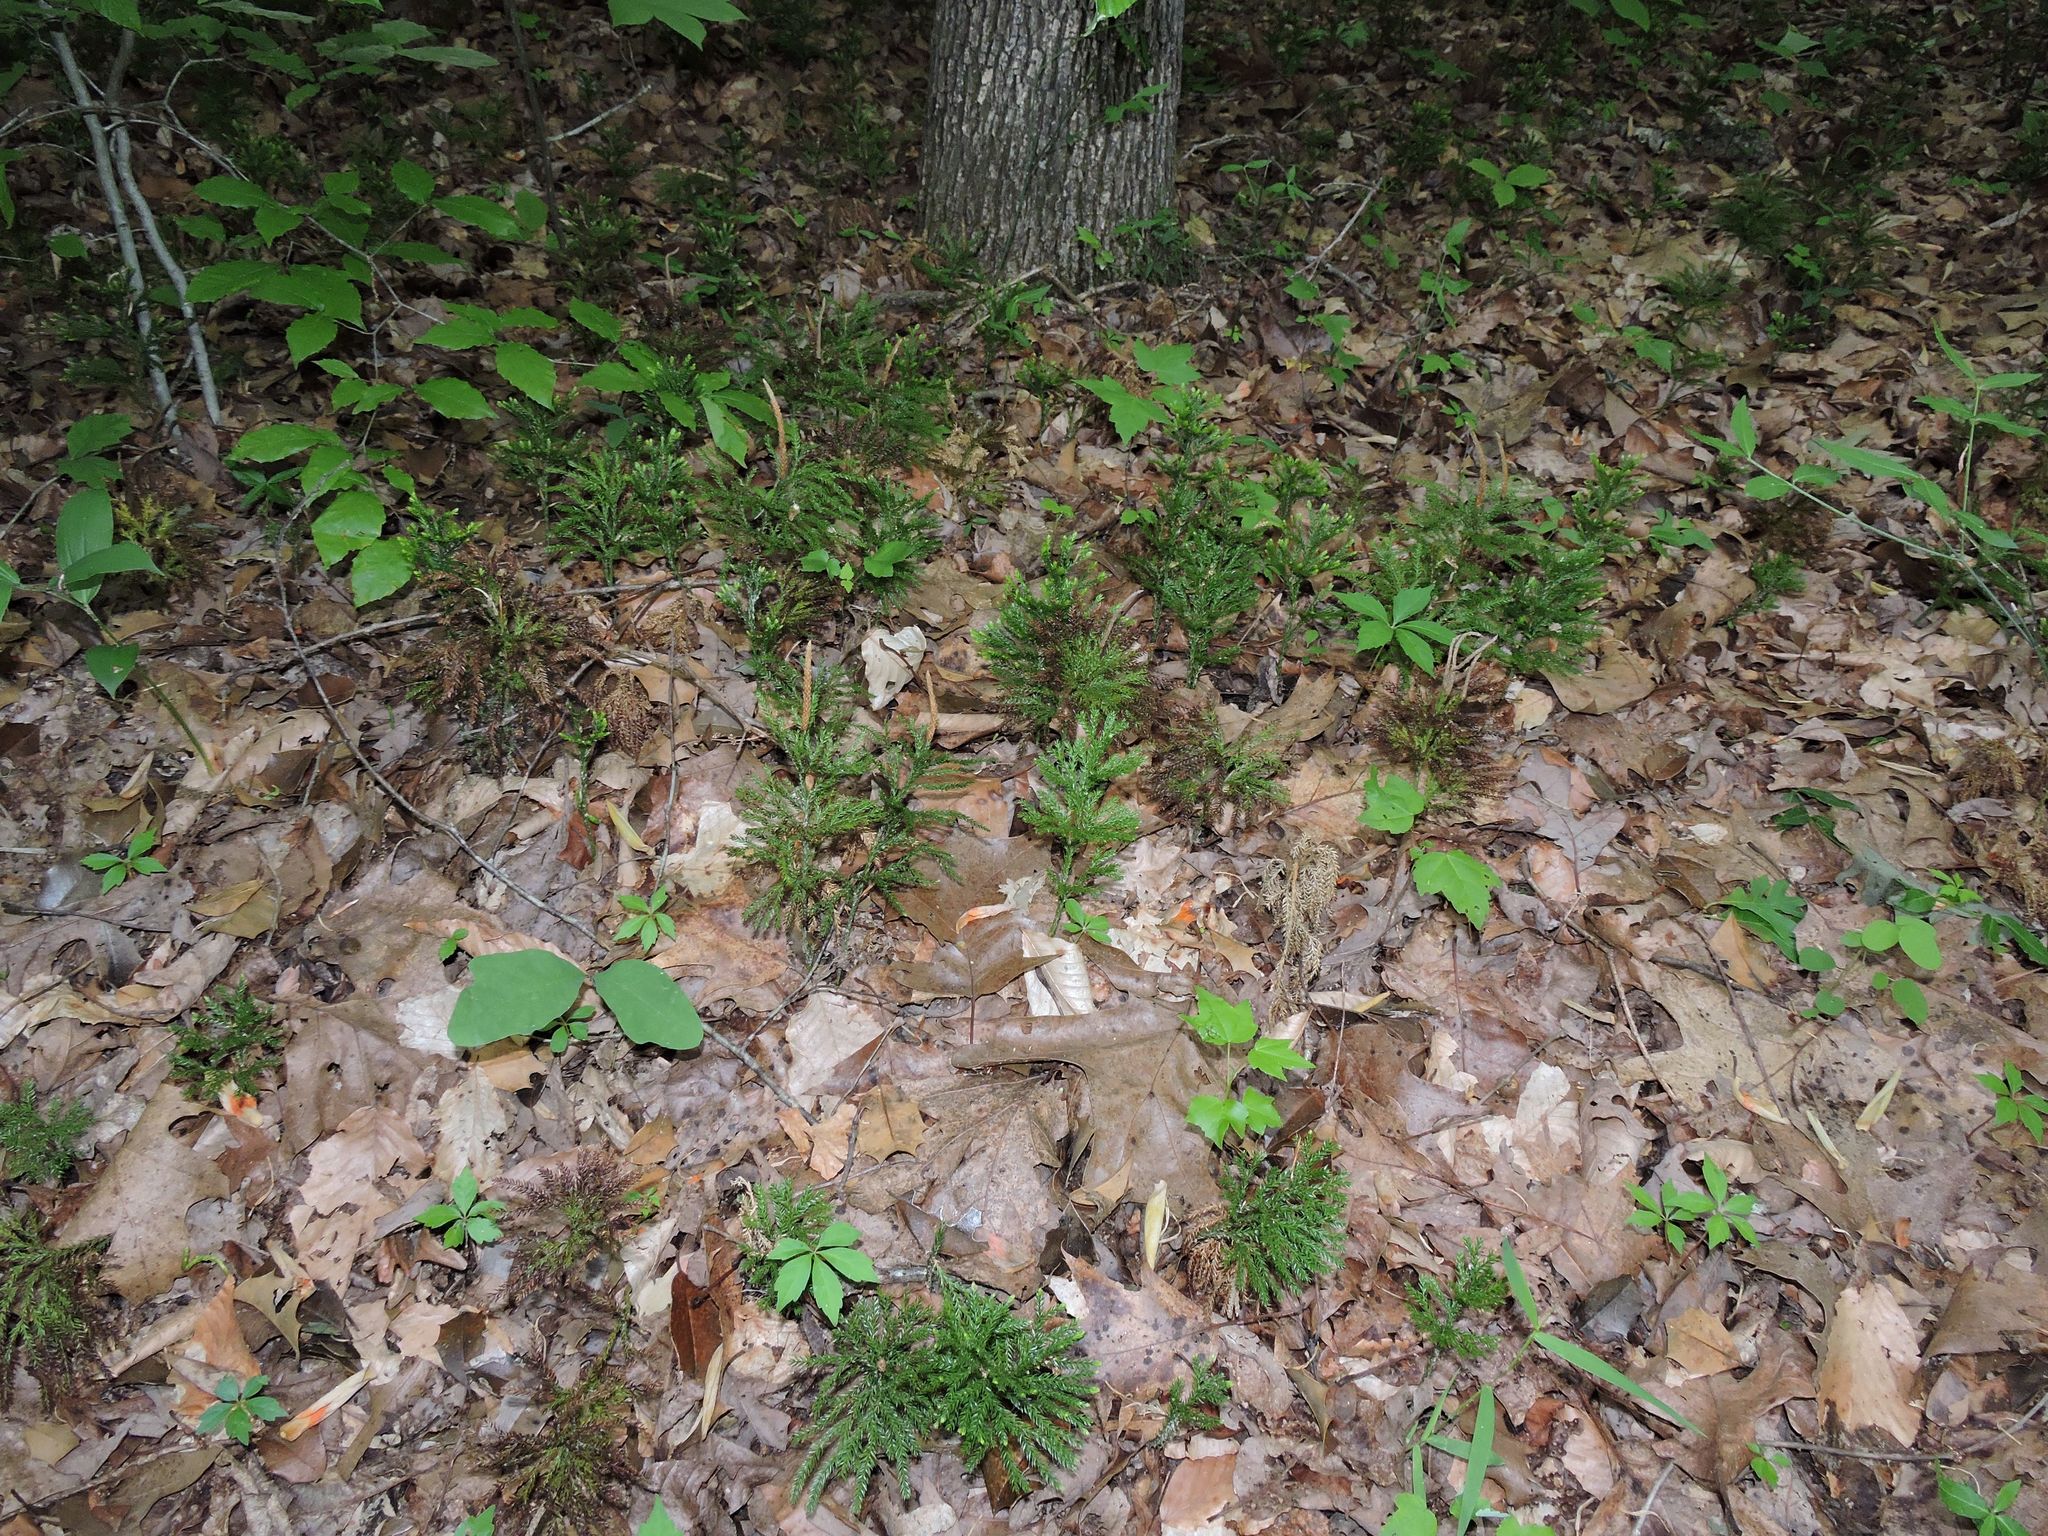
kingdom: Plantae
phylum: Tracheophyta
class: Lycopodiopsida
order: Lycopodiales
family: Lycopodiaceae
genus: Dendrolycopodium
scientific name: Dendrolycopodium obscurum
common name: Common ground-pine
